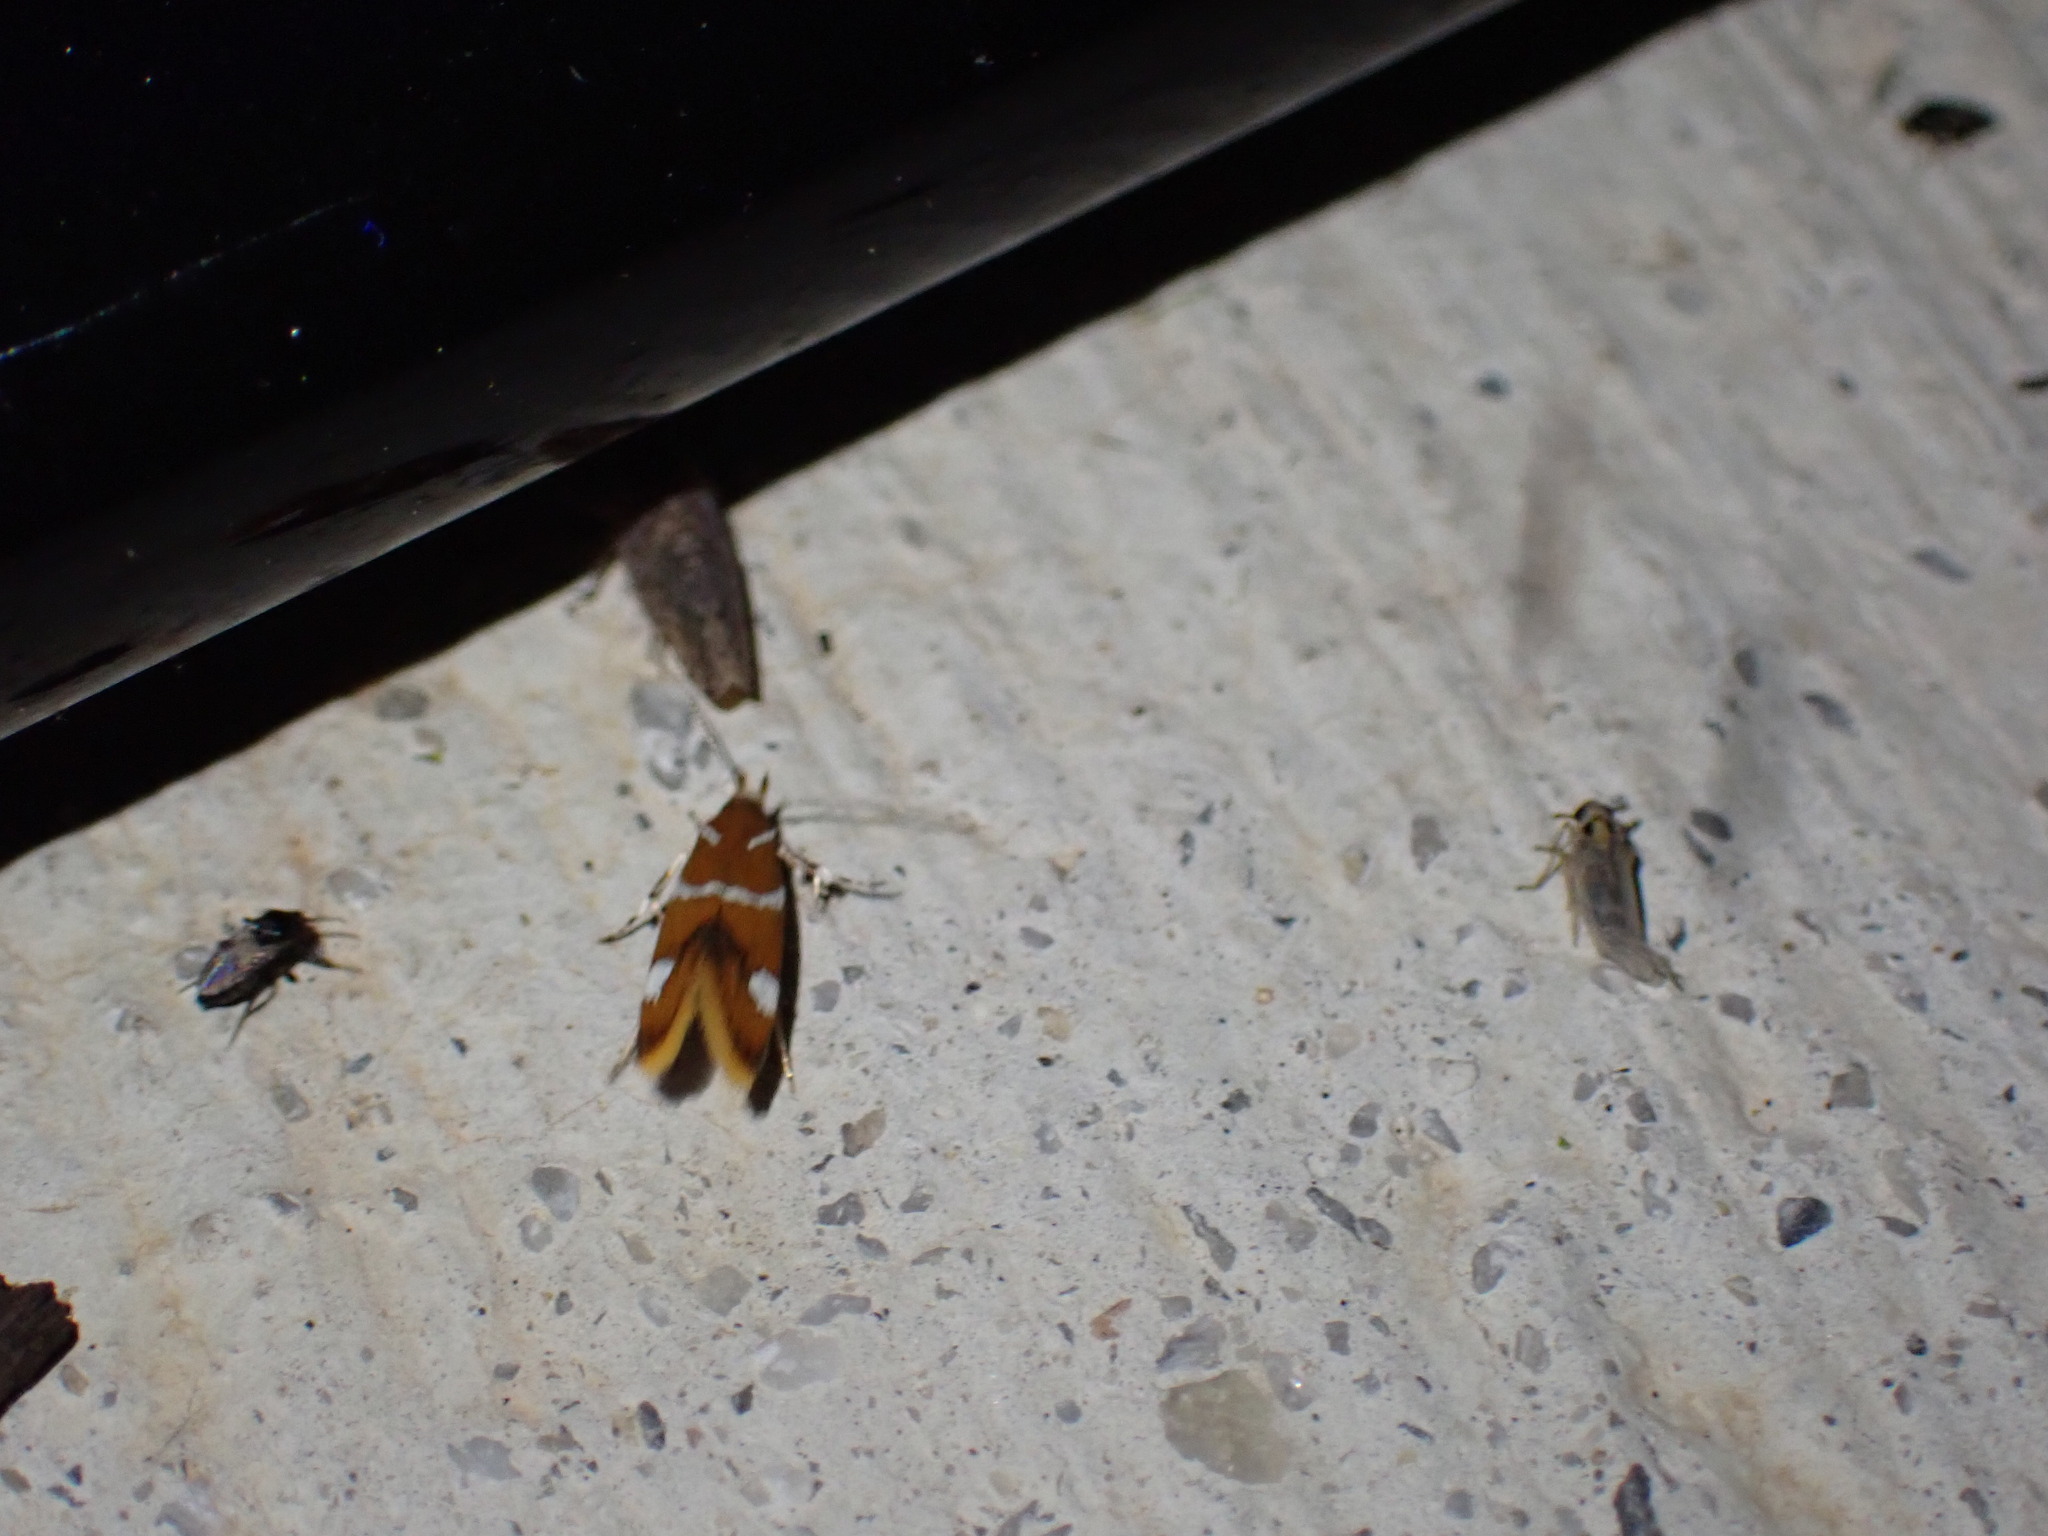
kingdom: Animalia
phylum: Arthropoda
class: Insecta
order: Lepidoptera
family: Oecophoridae
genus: Promalactis
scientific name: Promalactis suzukiella
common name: Moth
